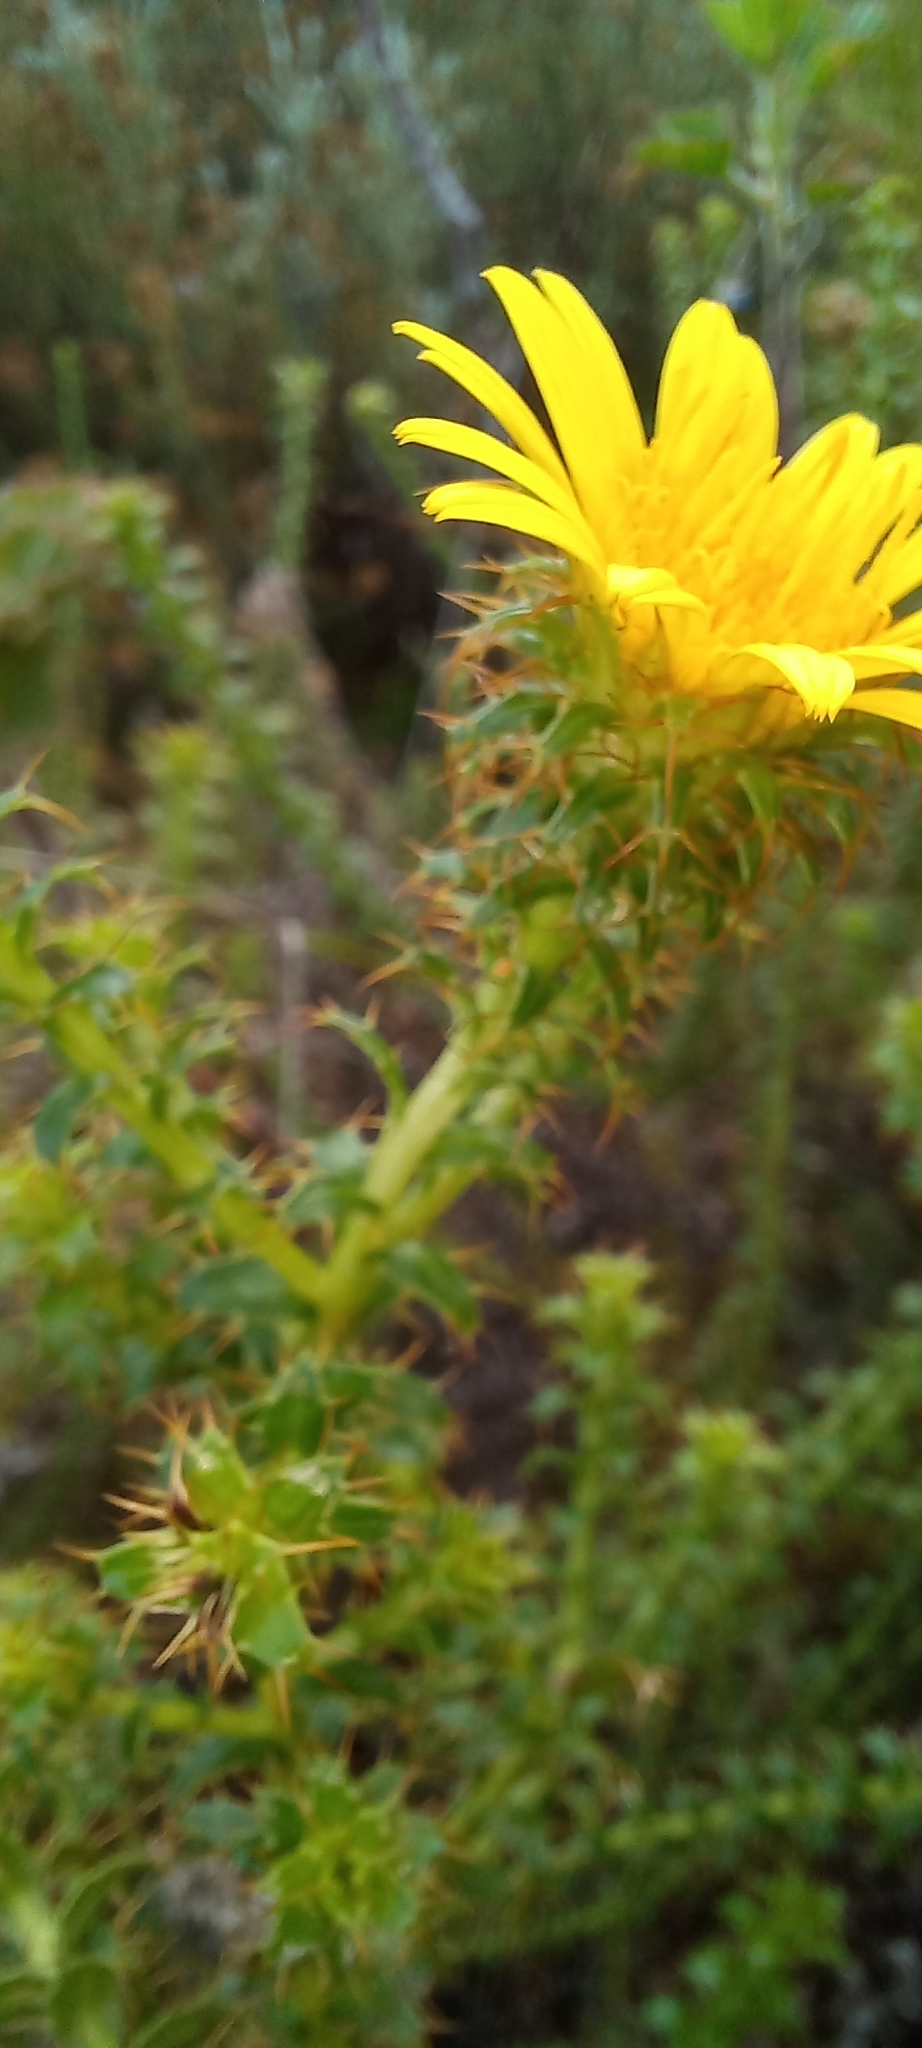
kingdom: Plantae
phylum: Tracheophyta
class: Magnoliopsida
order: Asterales
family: Asteraceae
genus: Cullumia
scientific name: Cullumia setosa
